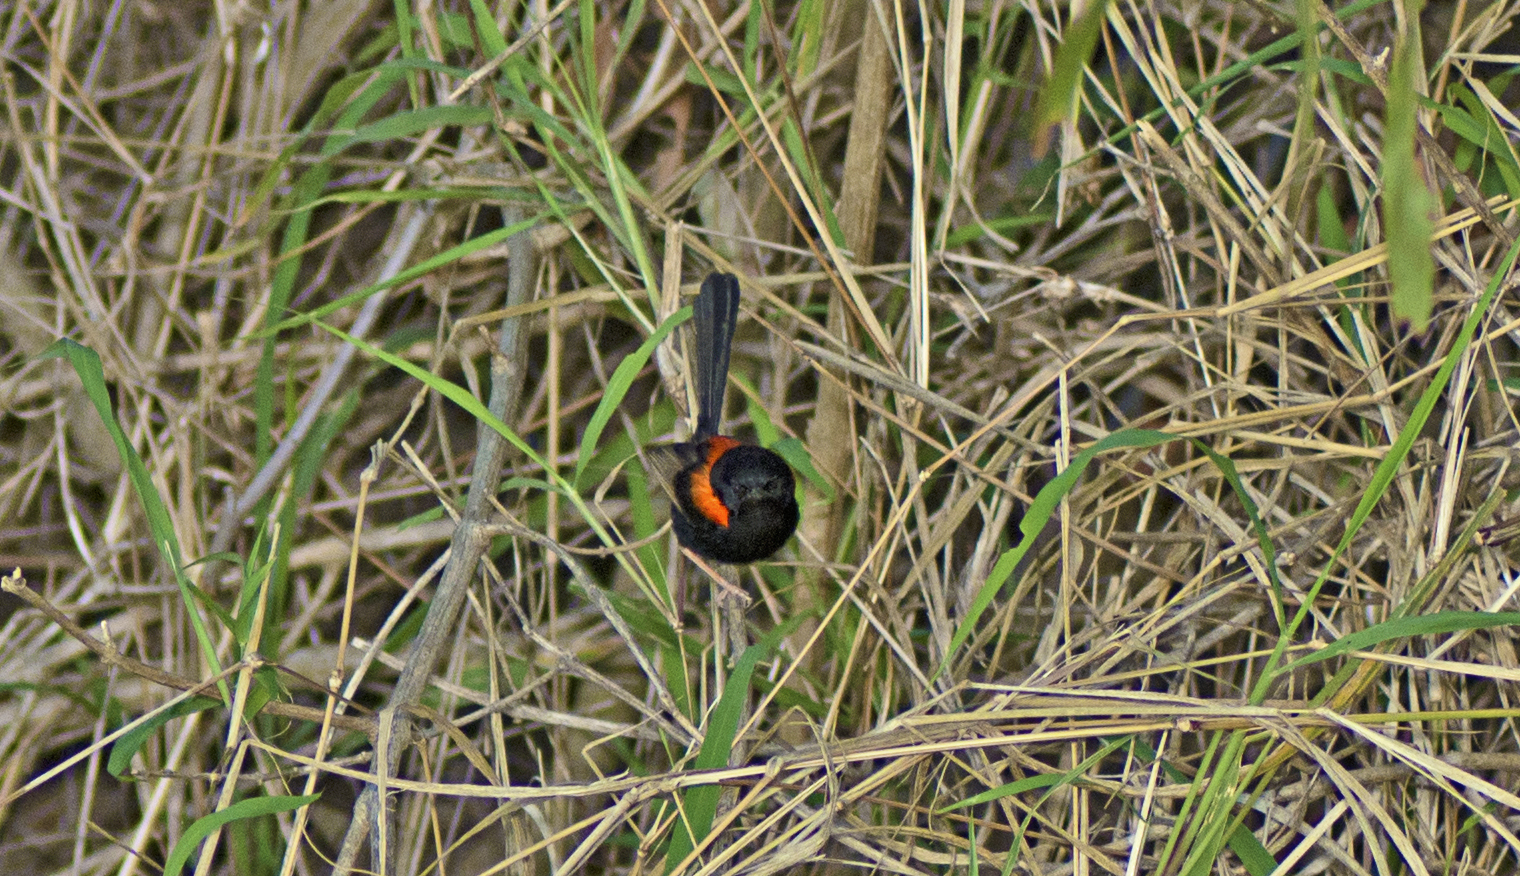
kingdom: Animalia
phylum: Chordata
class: Aves
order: Passeriformes
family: Maluridae
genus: Malurus
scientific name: Malurus melanocephalus
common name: Red-backed fairywren
